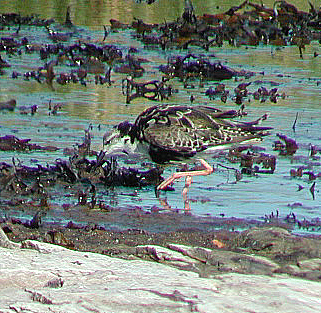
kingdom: Animalia
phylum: Chordata
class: Aves
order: Charadriiformes
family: Scolopacidae
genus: Calidris
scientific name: Calidris pugnax
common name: Ruff
